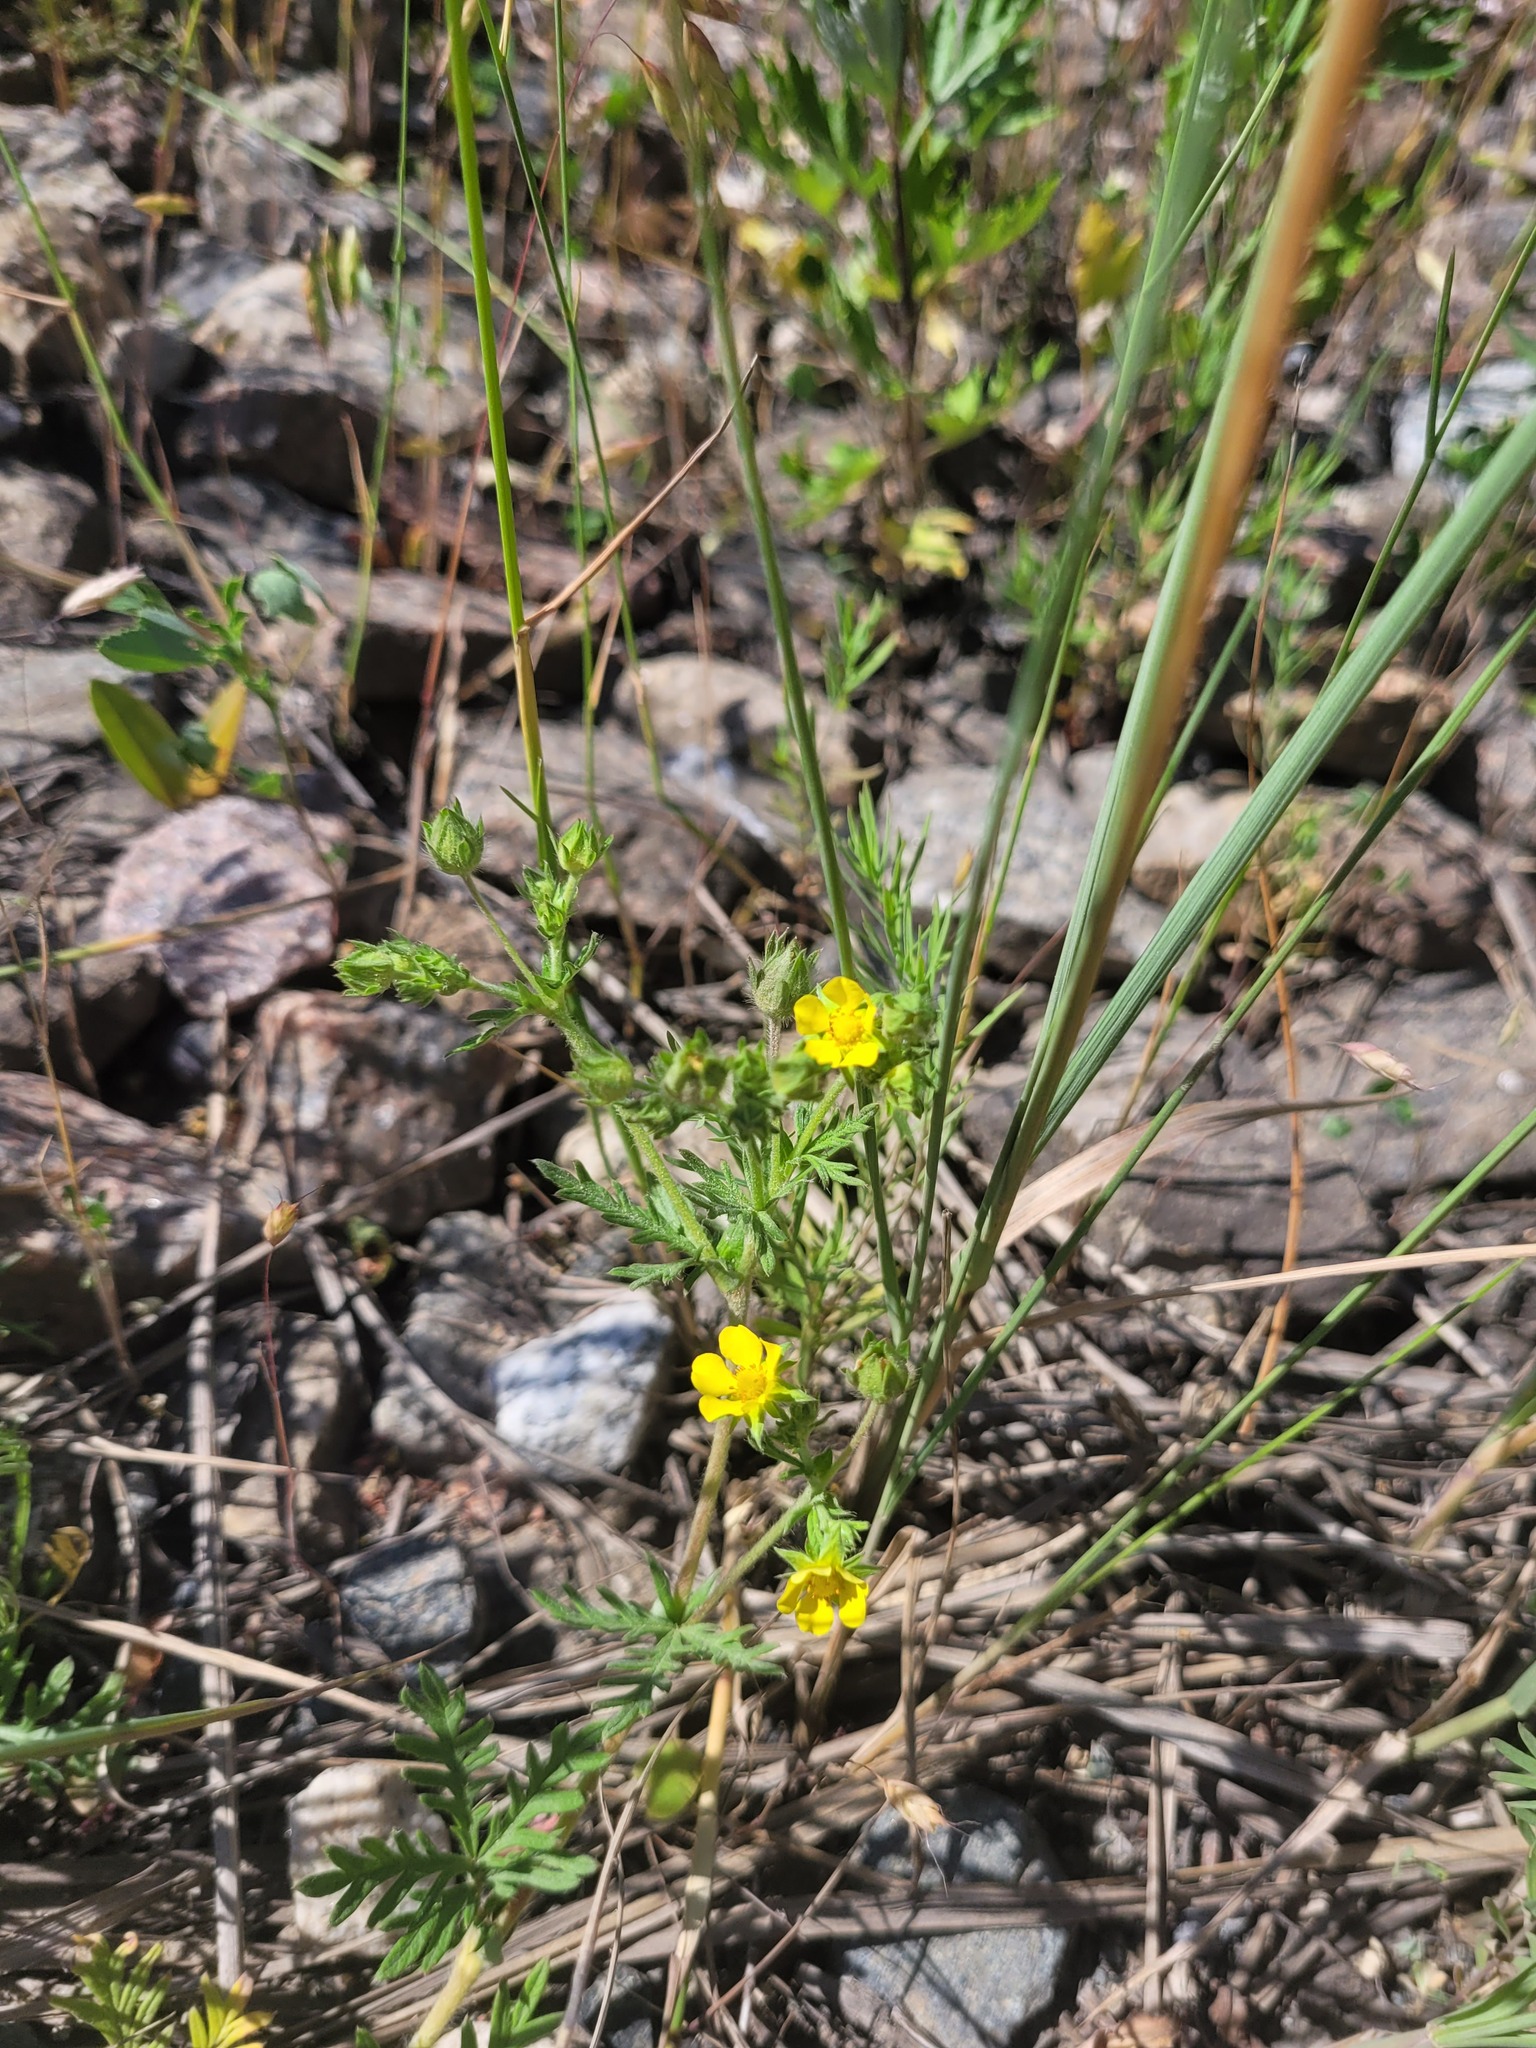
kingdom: Plantae
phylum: Tracheophyta
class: Magnoliopsida
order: Rosales
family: Rosaceae
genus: Potentilla
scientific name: Potentilla tergemina
